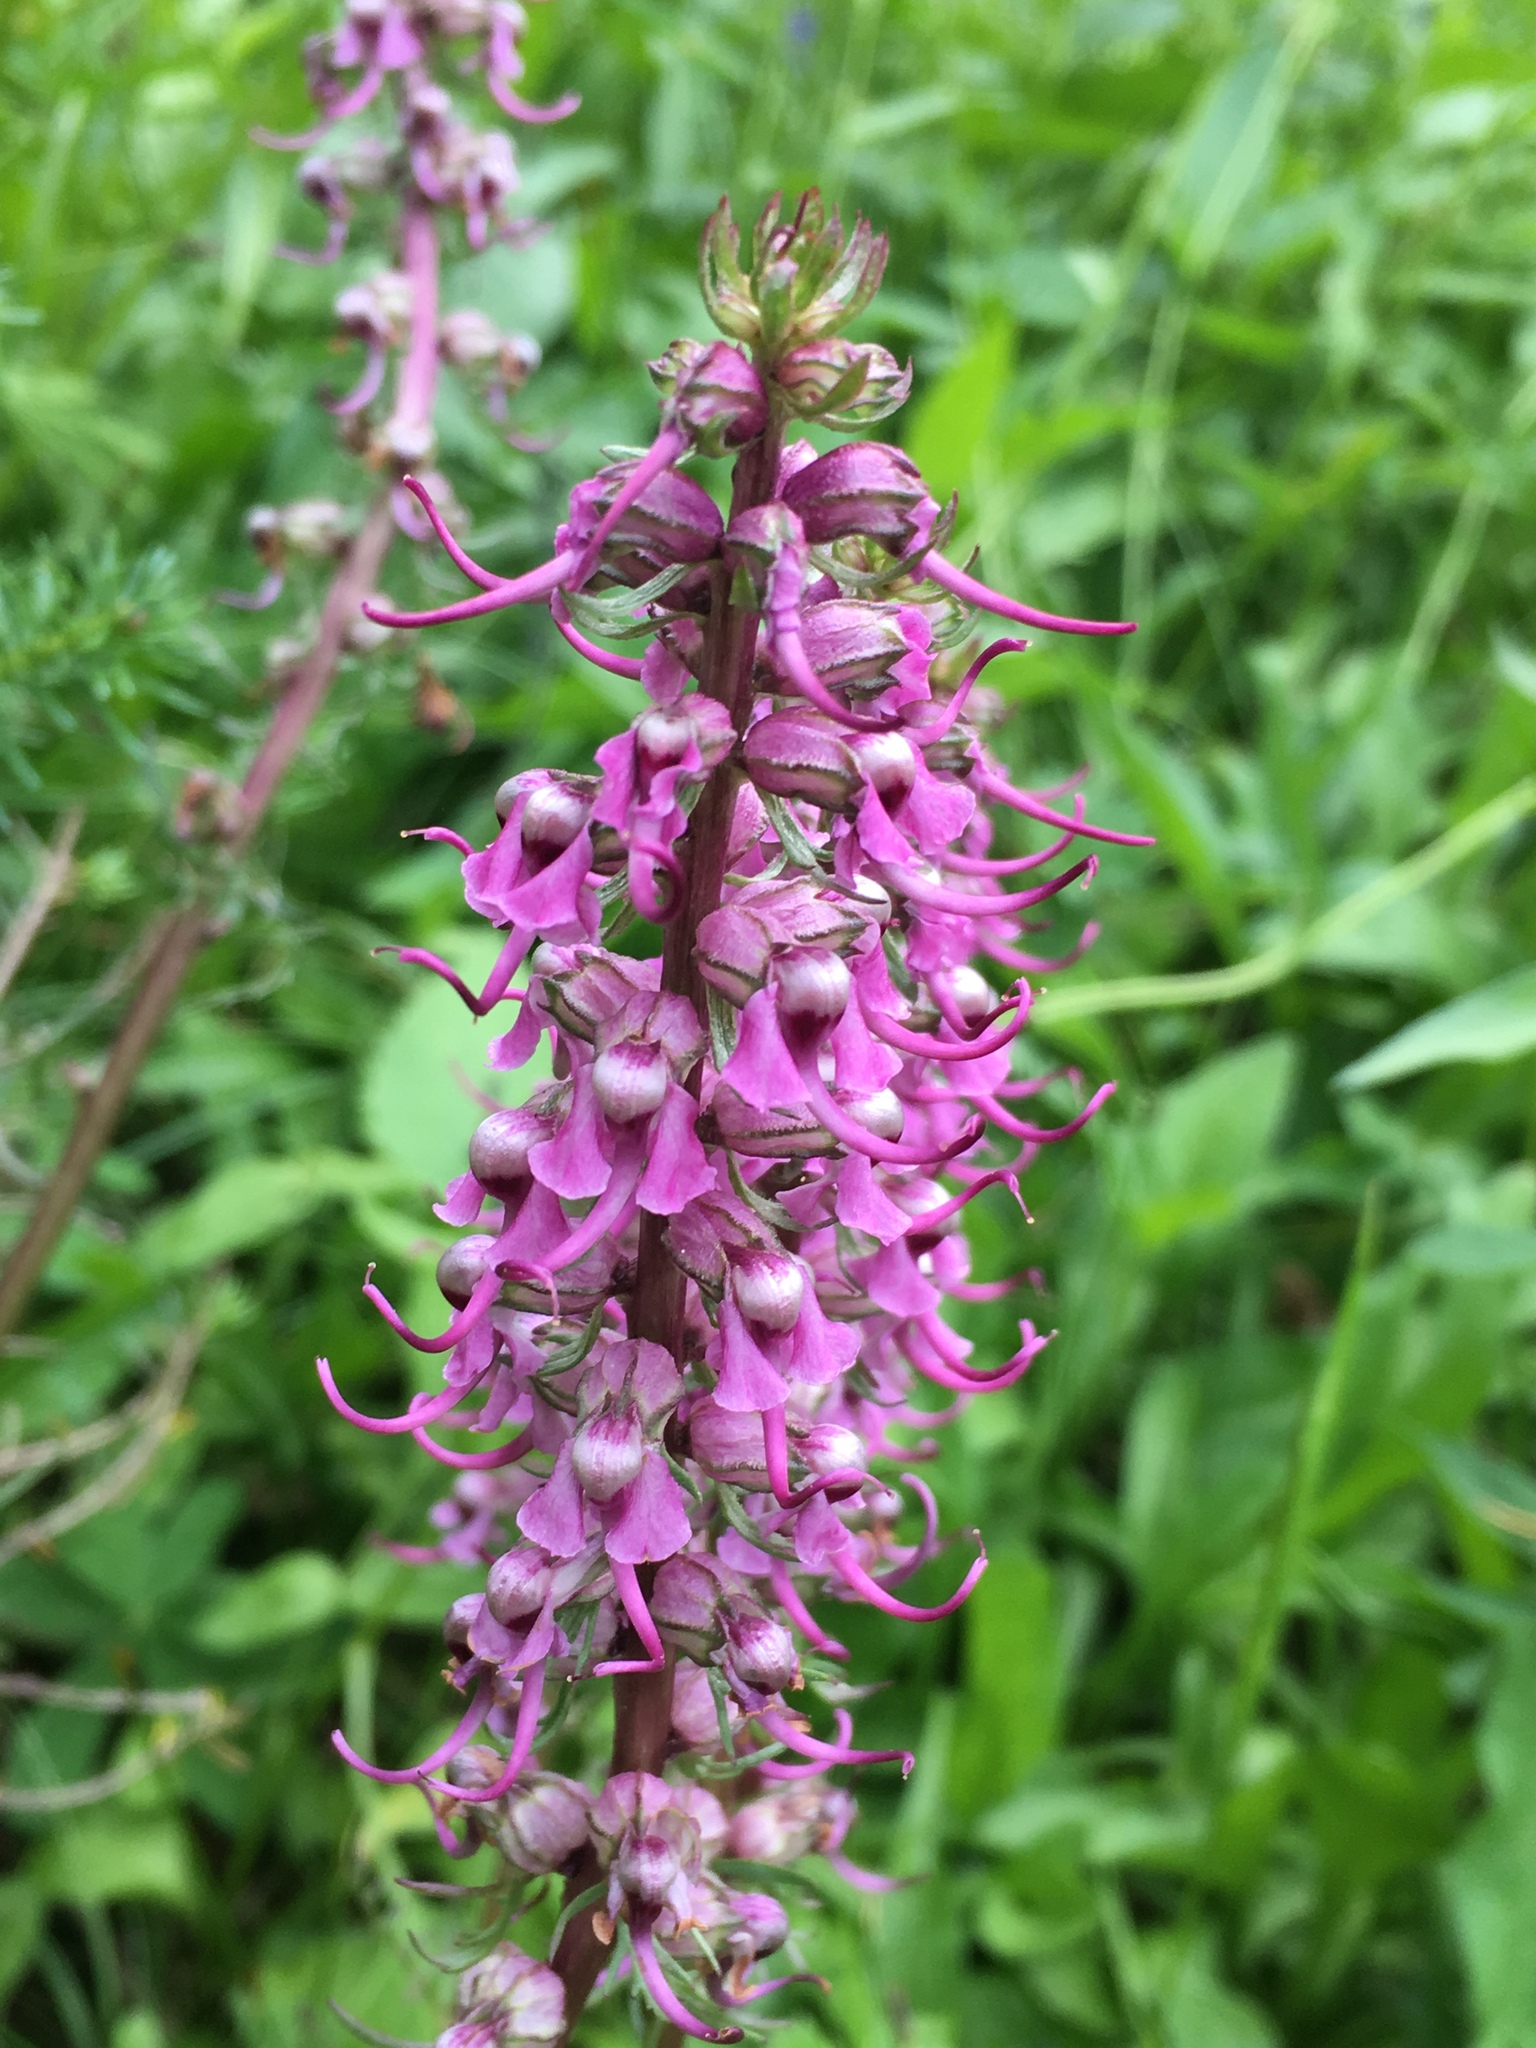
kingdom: Plantae
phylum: Tracheophyta
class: Magnoliopsida
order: Lamiales
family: Orobanchaceae
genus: Pedicularis
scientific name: Pedicularis groenlandica
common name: Elephant's-head
